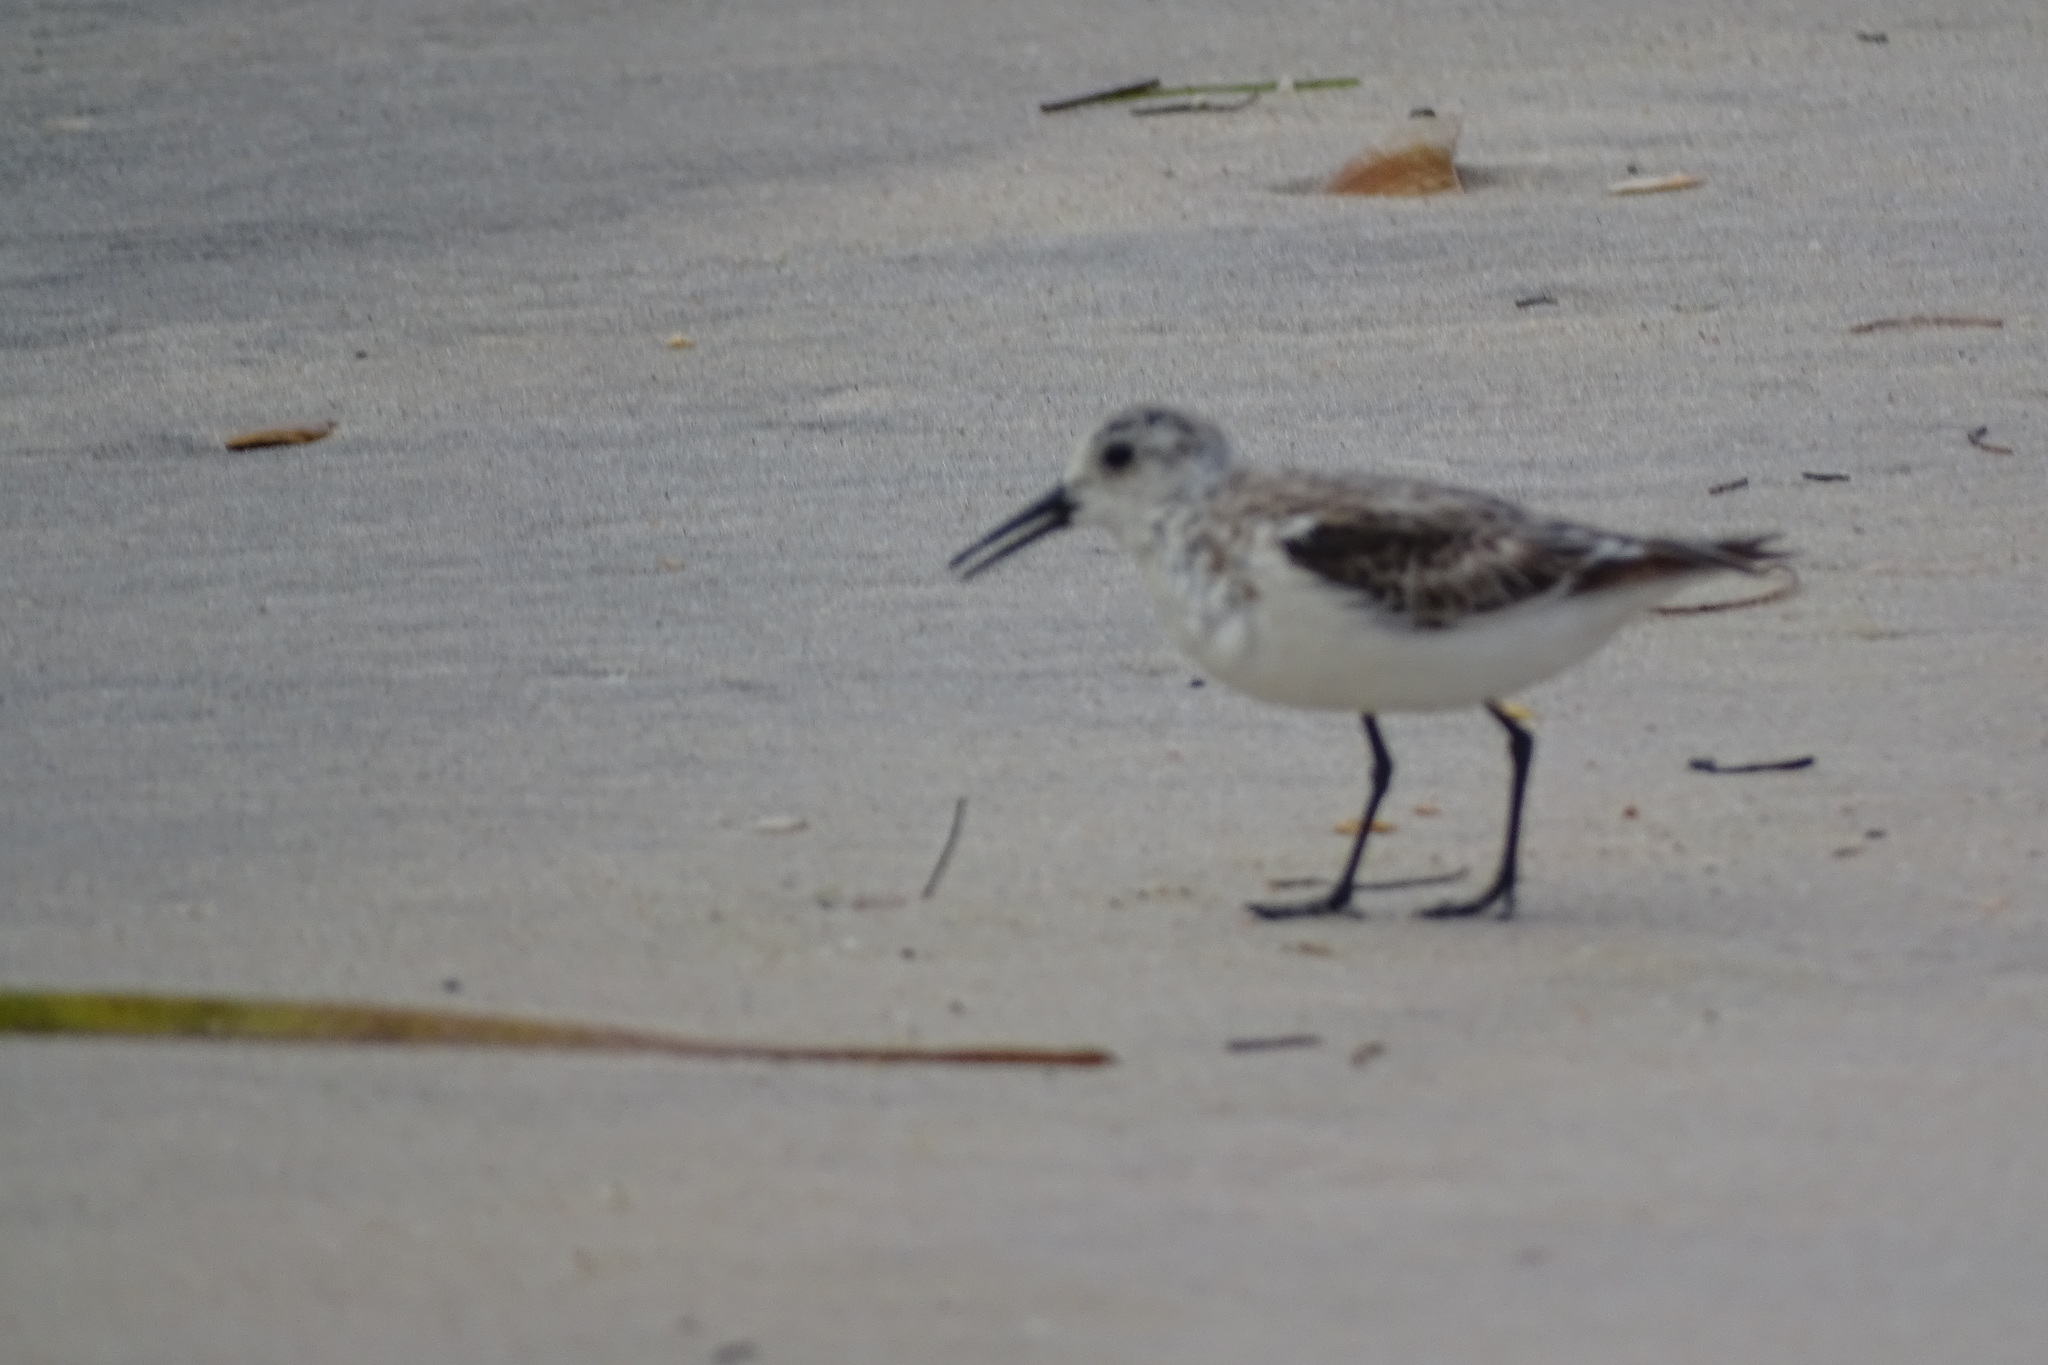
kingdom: Animalia
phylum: Chordata
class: Aves
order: Charadriiformes
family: Scolopacidae
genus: Calidris
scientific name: Calidris alba
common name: Sanderling
